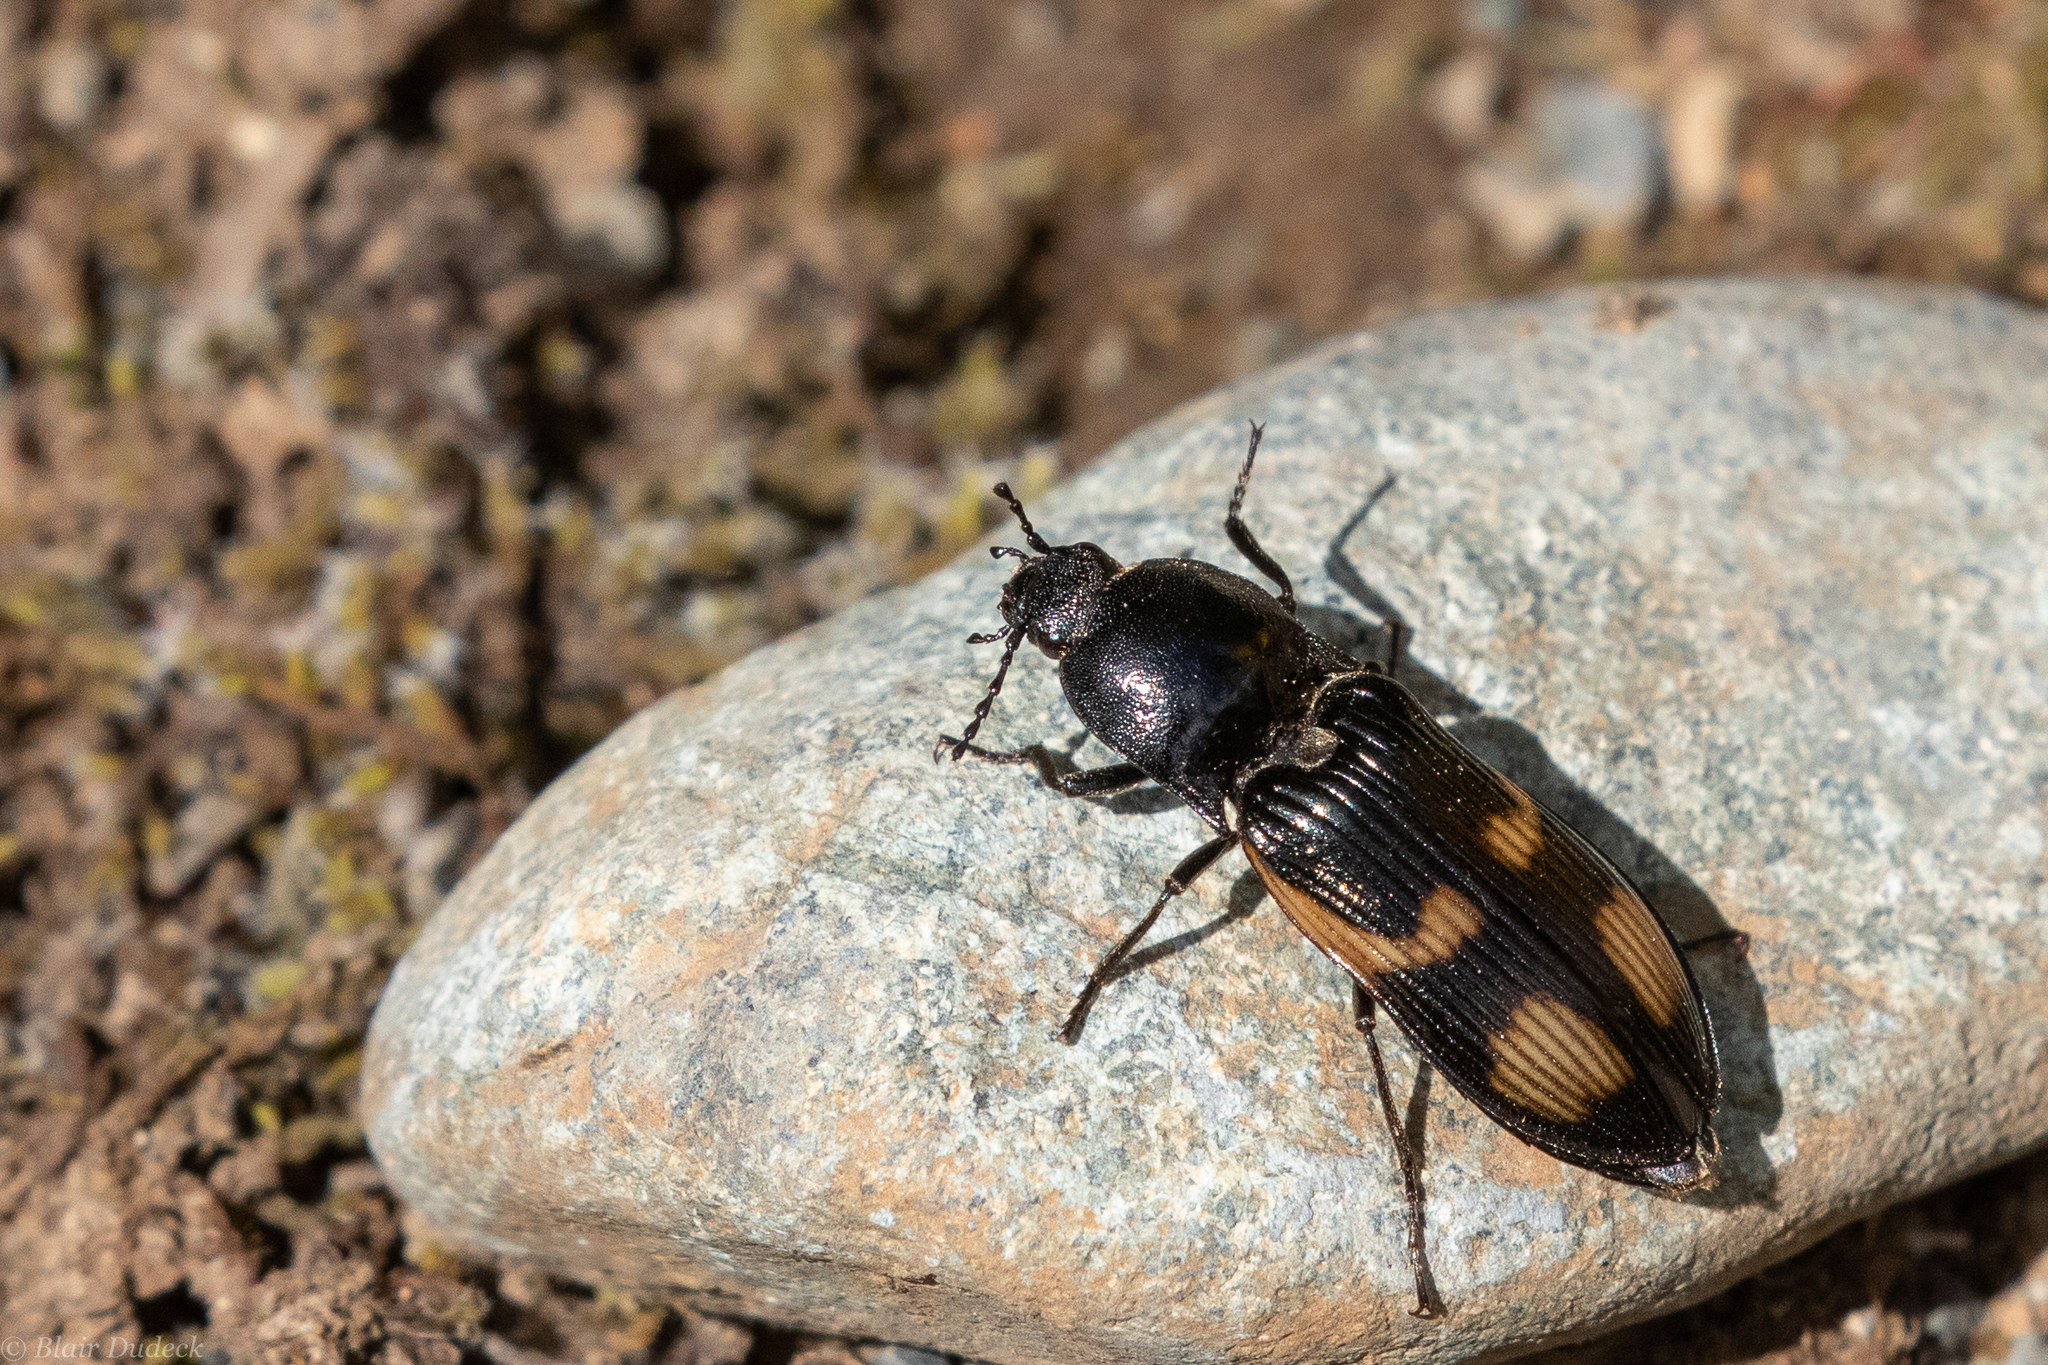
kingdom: Animalia
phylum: Arthropoda
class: Insecta
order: Coleoptera
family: Elateridae
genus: Selatosomus
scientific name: Selatosomus suckleyi
